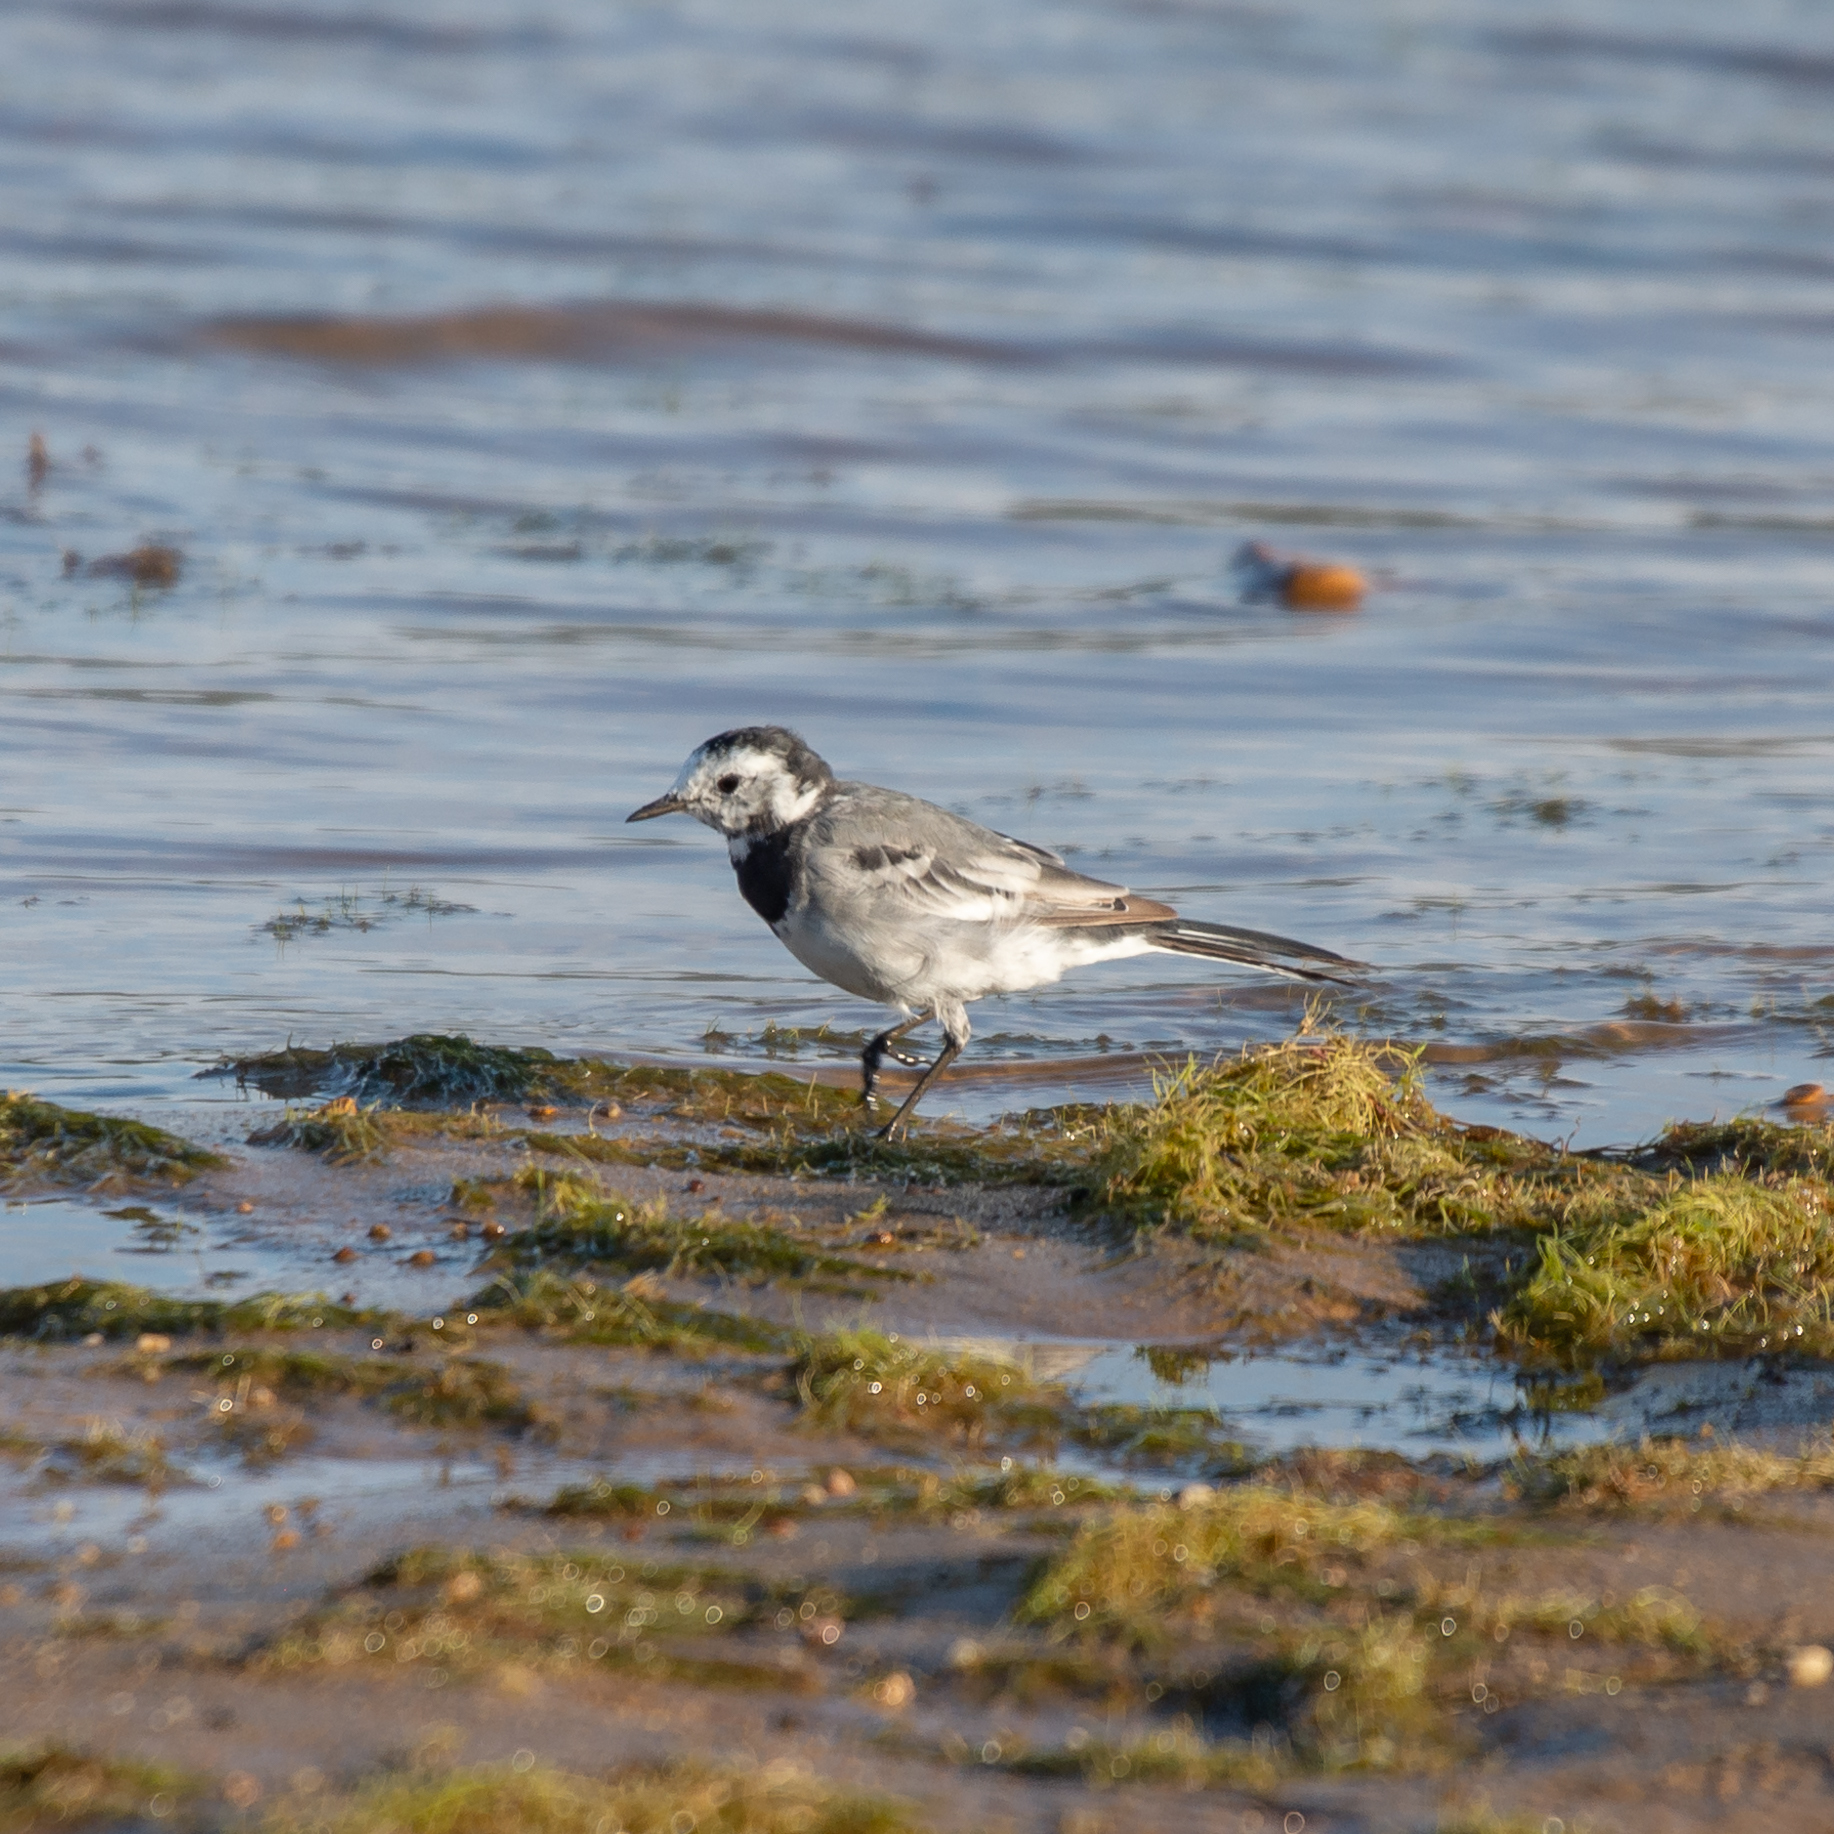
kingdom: Animalia
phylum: Chordata
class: Aves
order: Passeriformes
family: Motacillidae
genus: Motacilla
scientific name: Motacilla alba
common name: White wagtail
